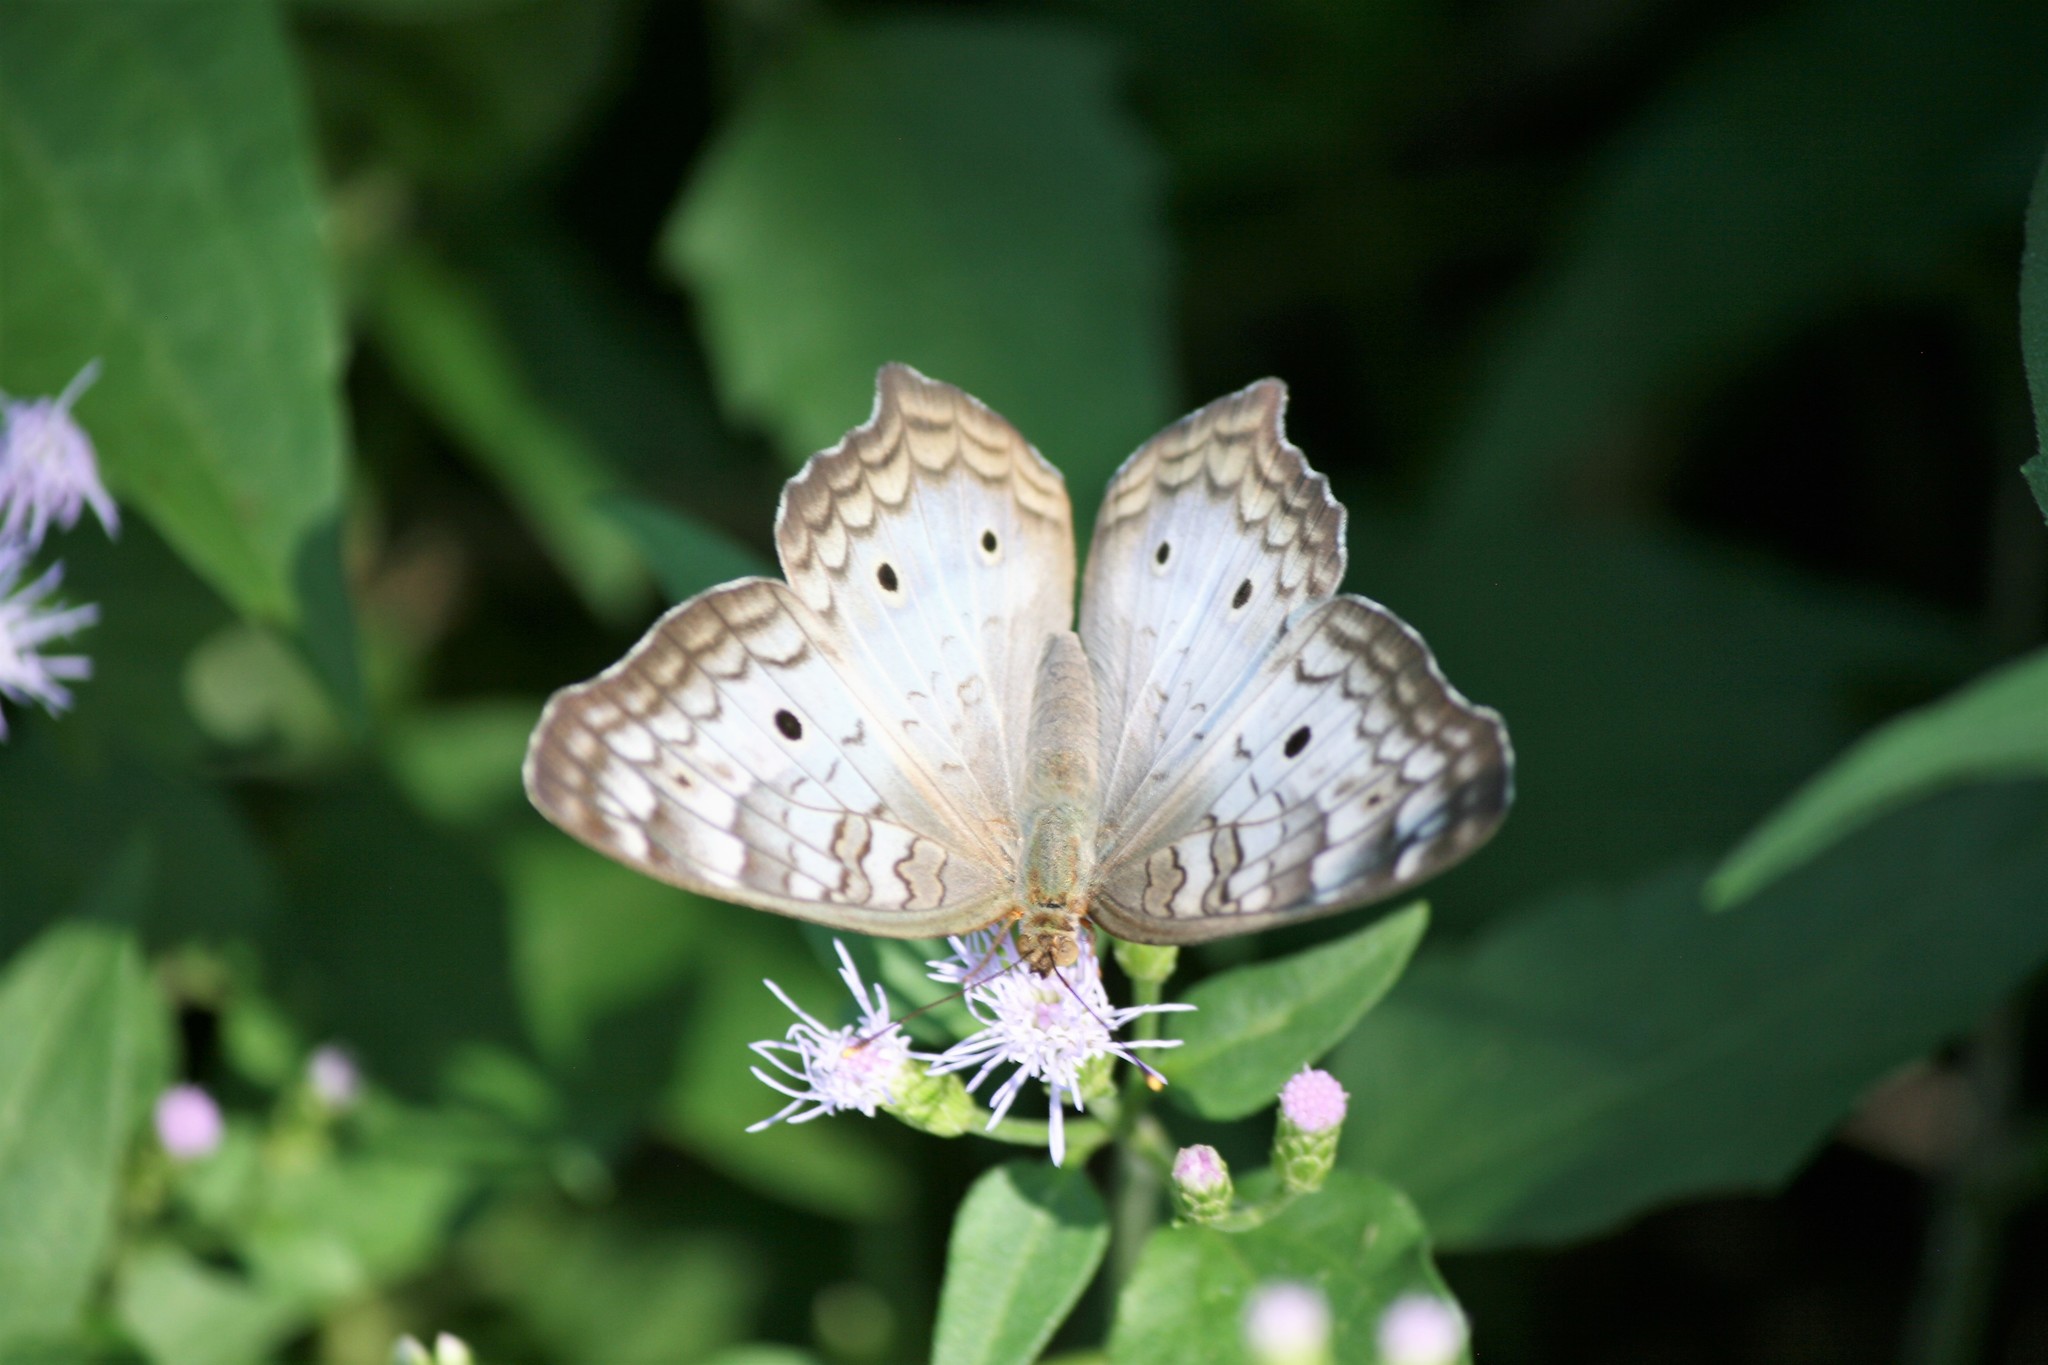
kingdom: Animalia
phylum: Arthropoda
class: Insecta
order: Lepidoptera
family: Nymphalidae
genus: Anartia
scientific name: Anartia jatrophae
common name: White peacock
